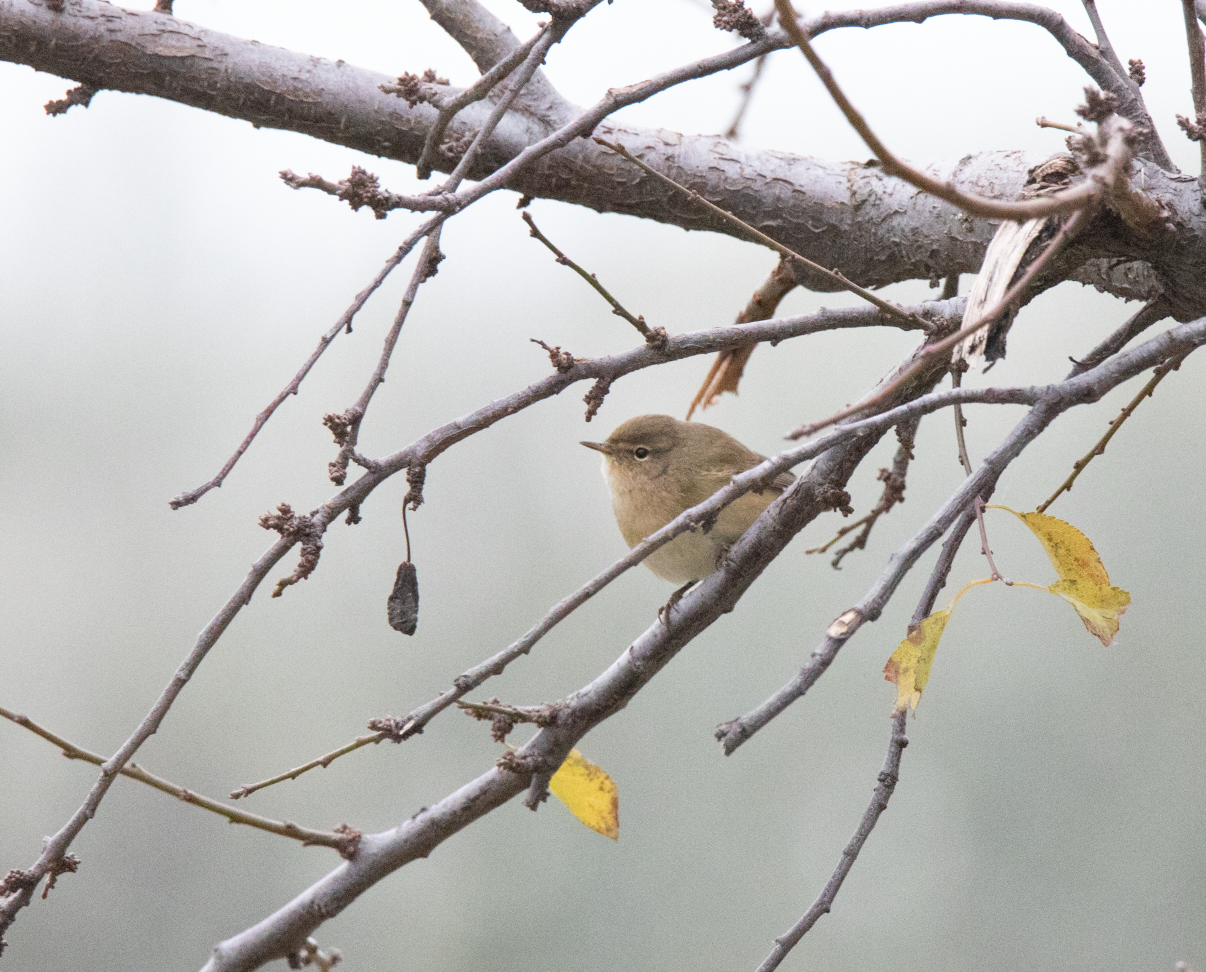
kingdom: Animalia
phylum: Chordata
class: Aves
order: Passeriformes
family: Phylloscopidae
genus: Phylloscopus
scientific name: Phylloscopus collybita
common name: Common chiffchaff
